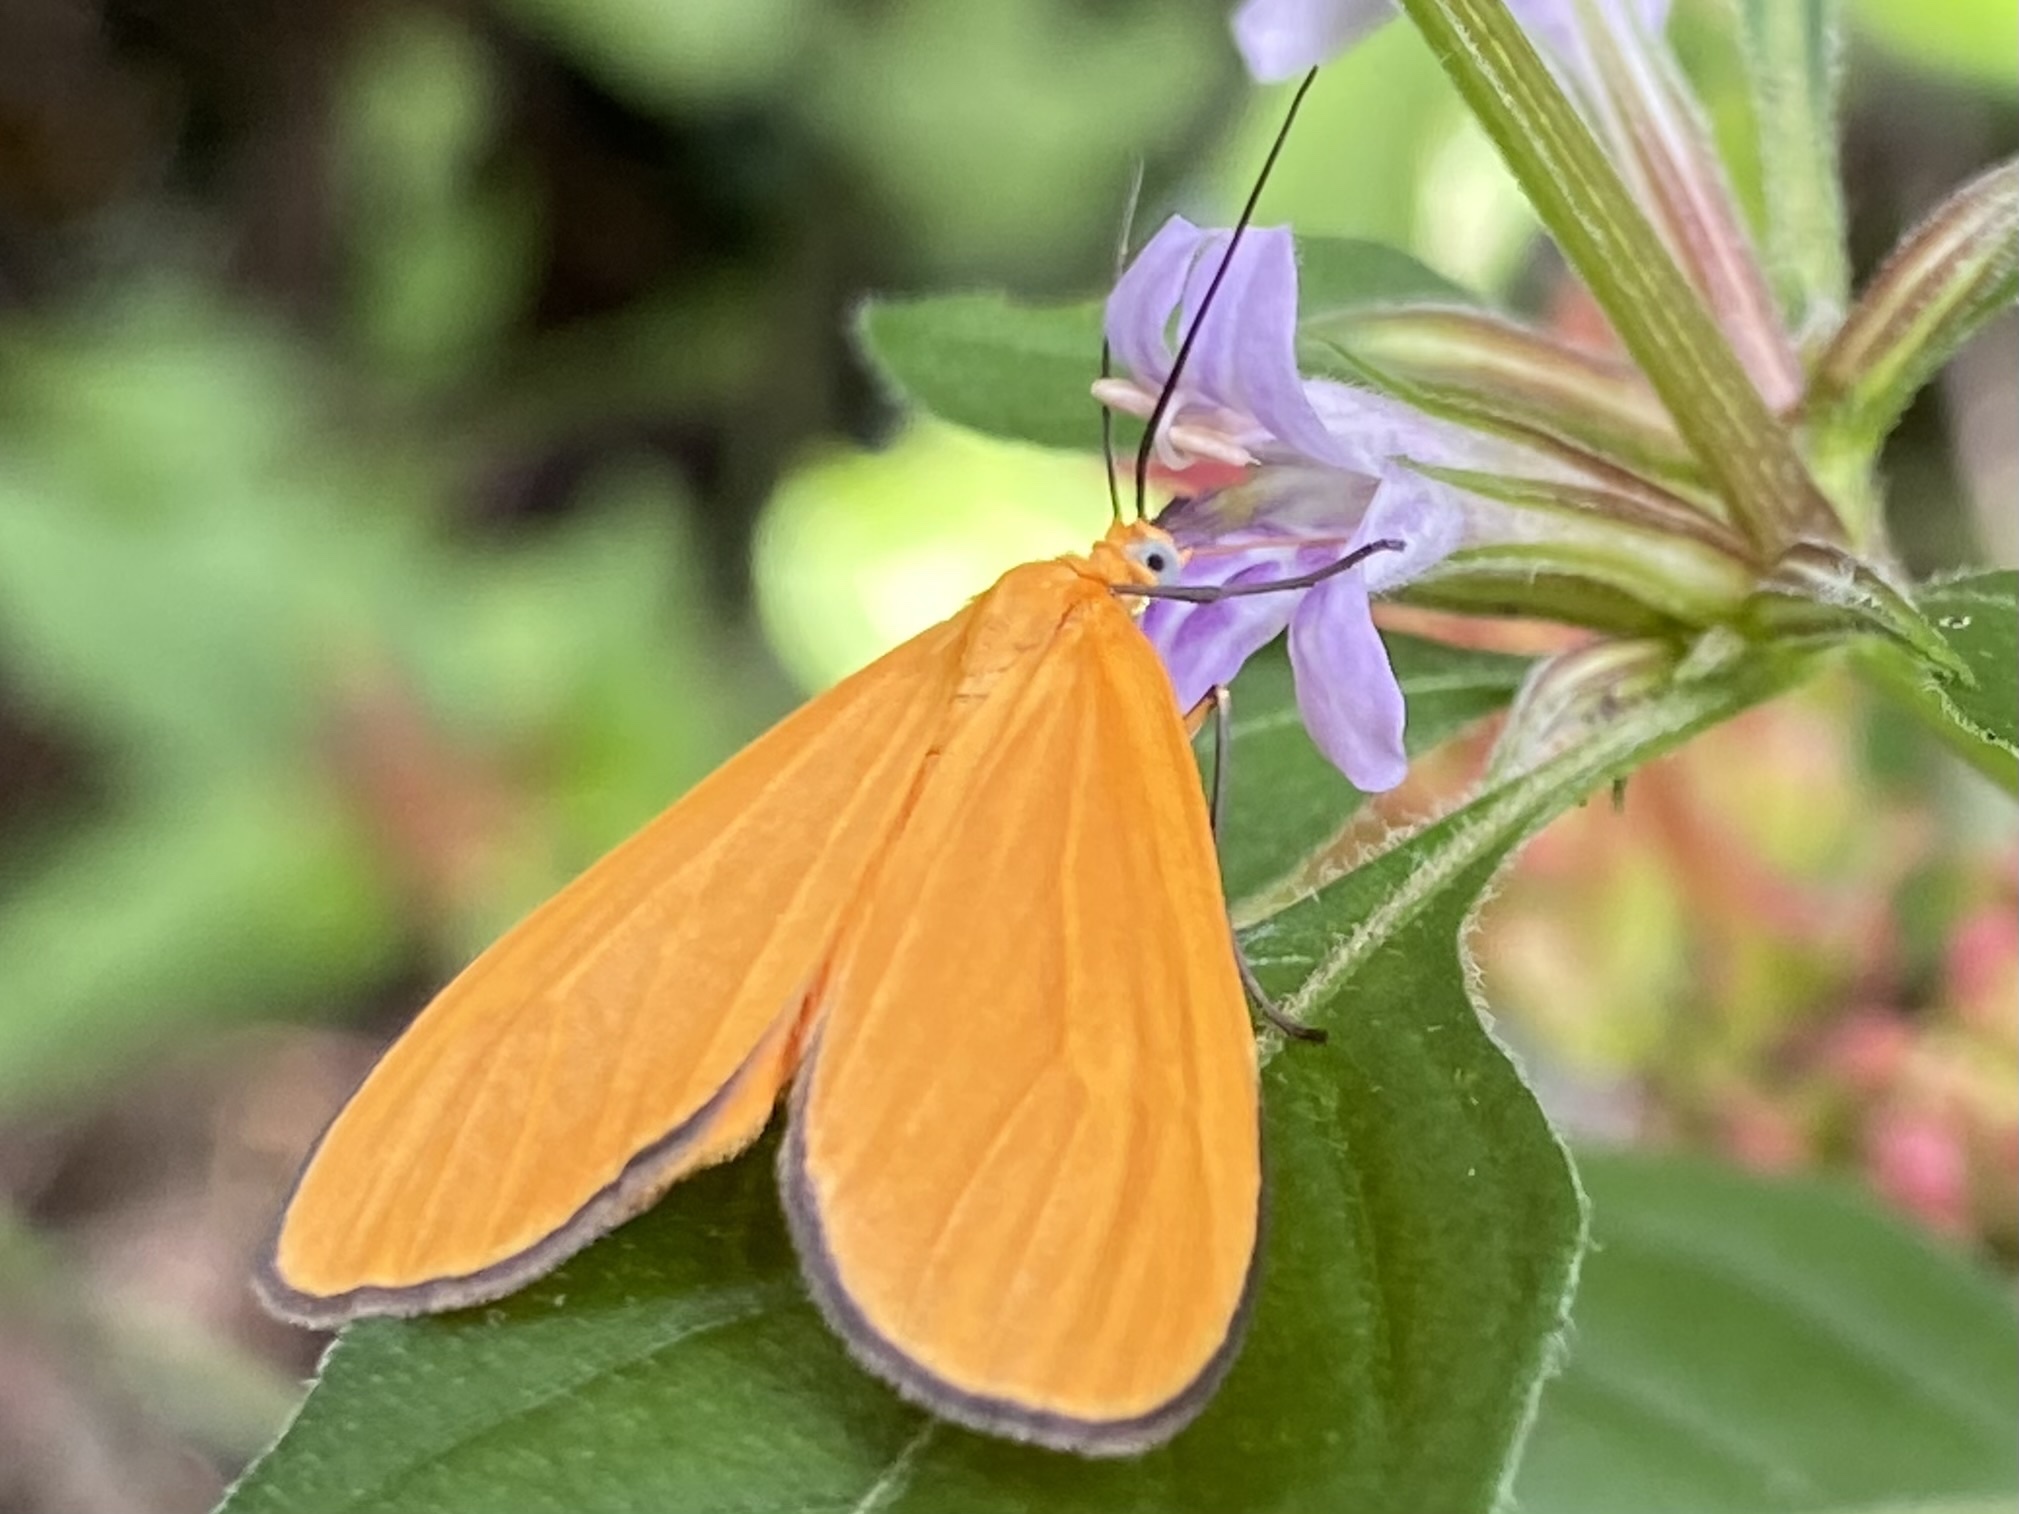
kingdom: Animalia
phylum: Arthropoda
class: Insecta
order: Lepidoptera
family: Geometridae
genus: Eubaphe
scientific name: Eubaphe unicolor
